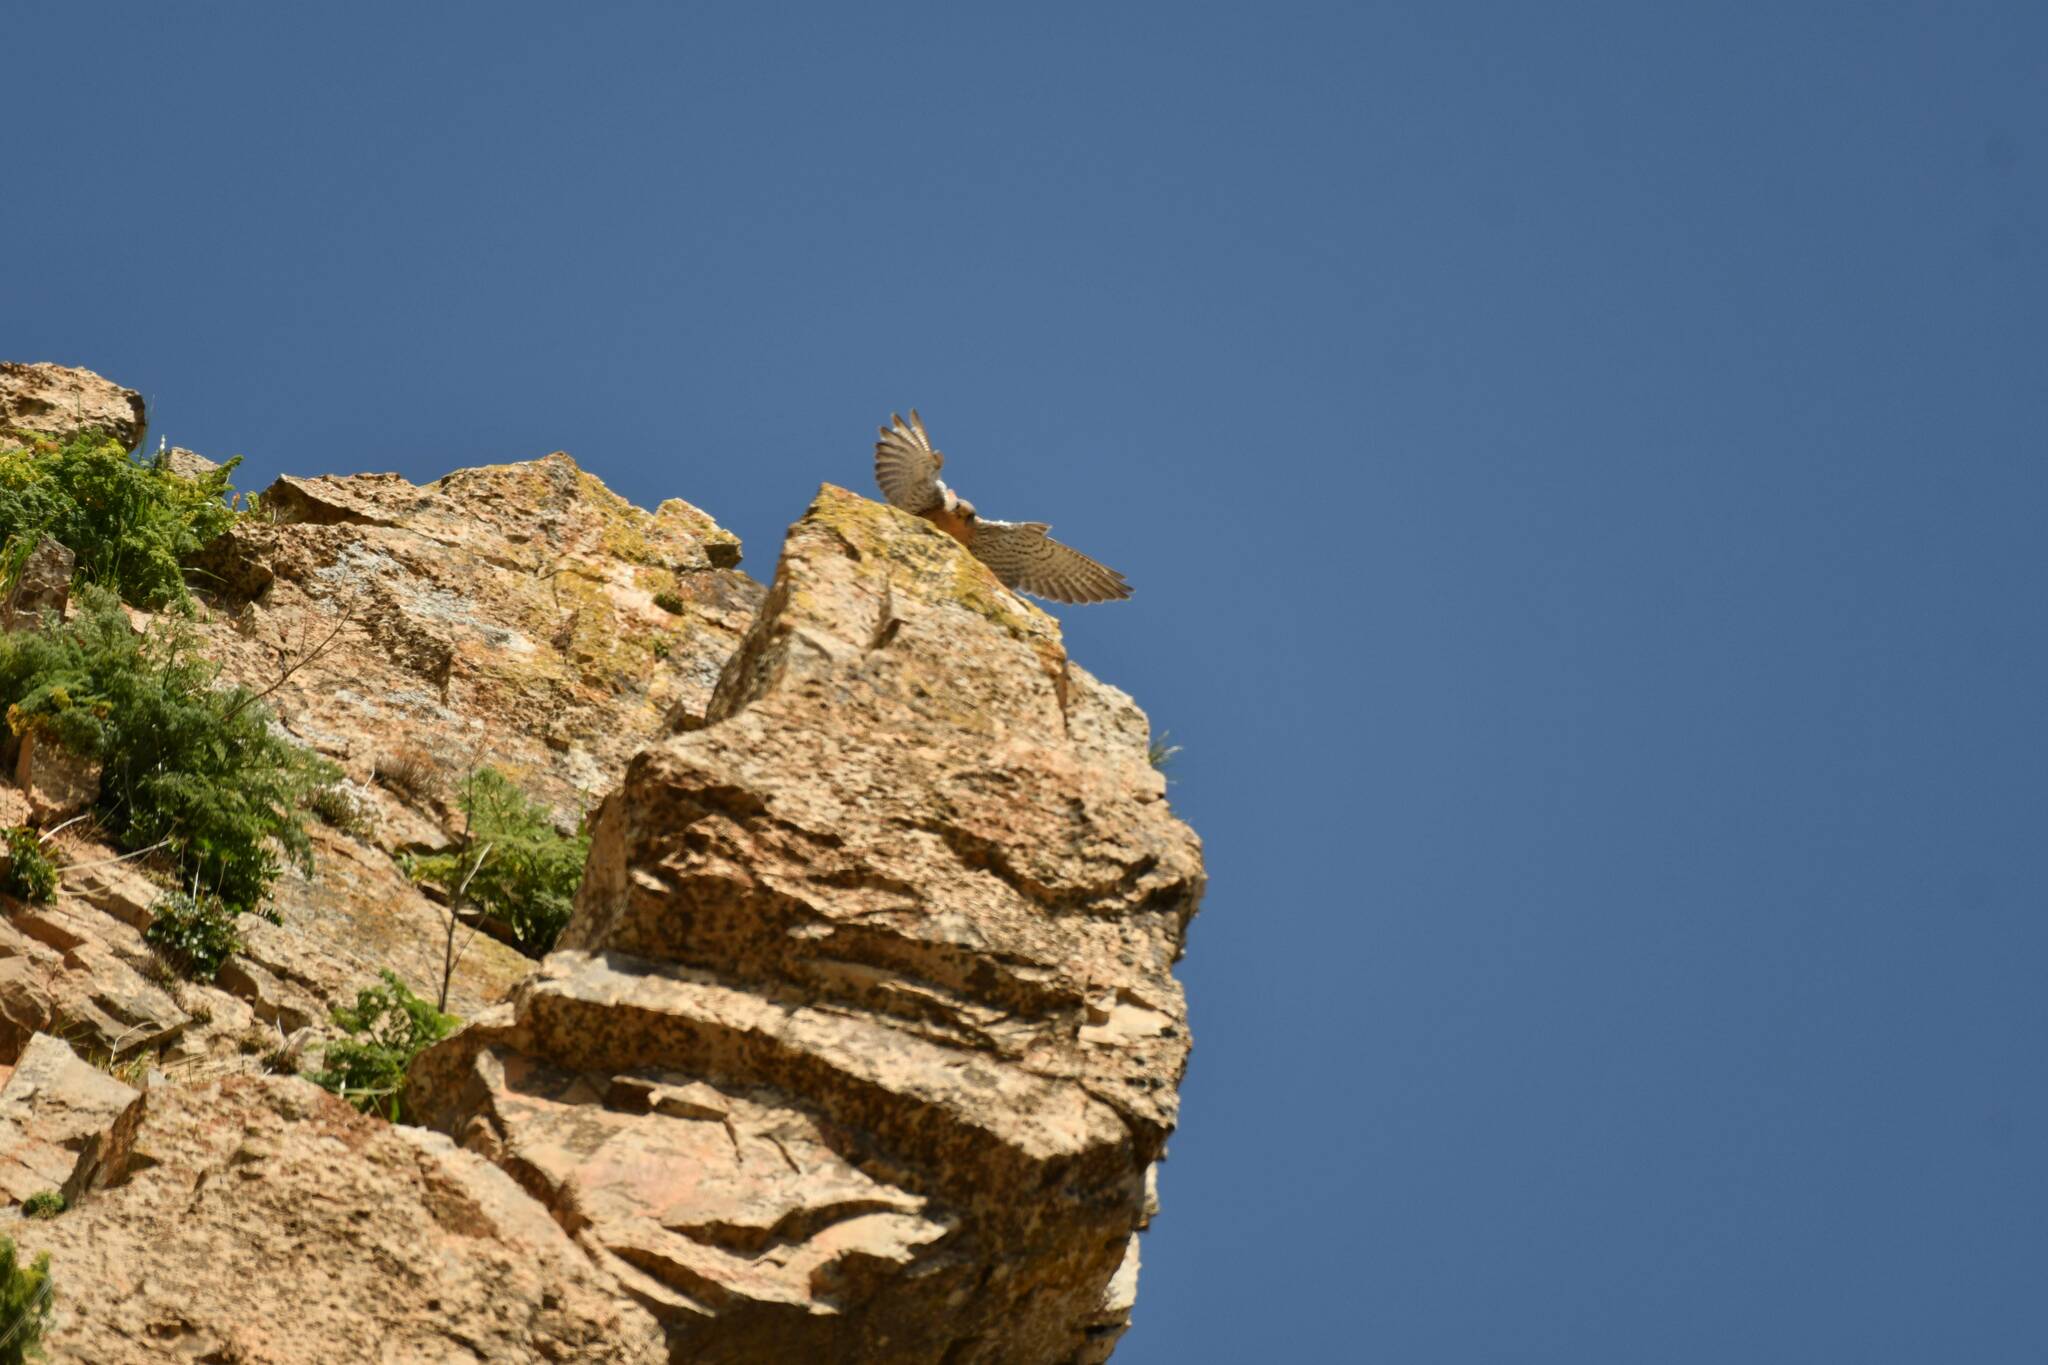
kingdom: Animalia
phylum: Chordata
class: Aves
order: Falconiformes
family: Falconidae
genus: Falco
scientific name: Falco naumanni
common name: Lesser kestrel
